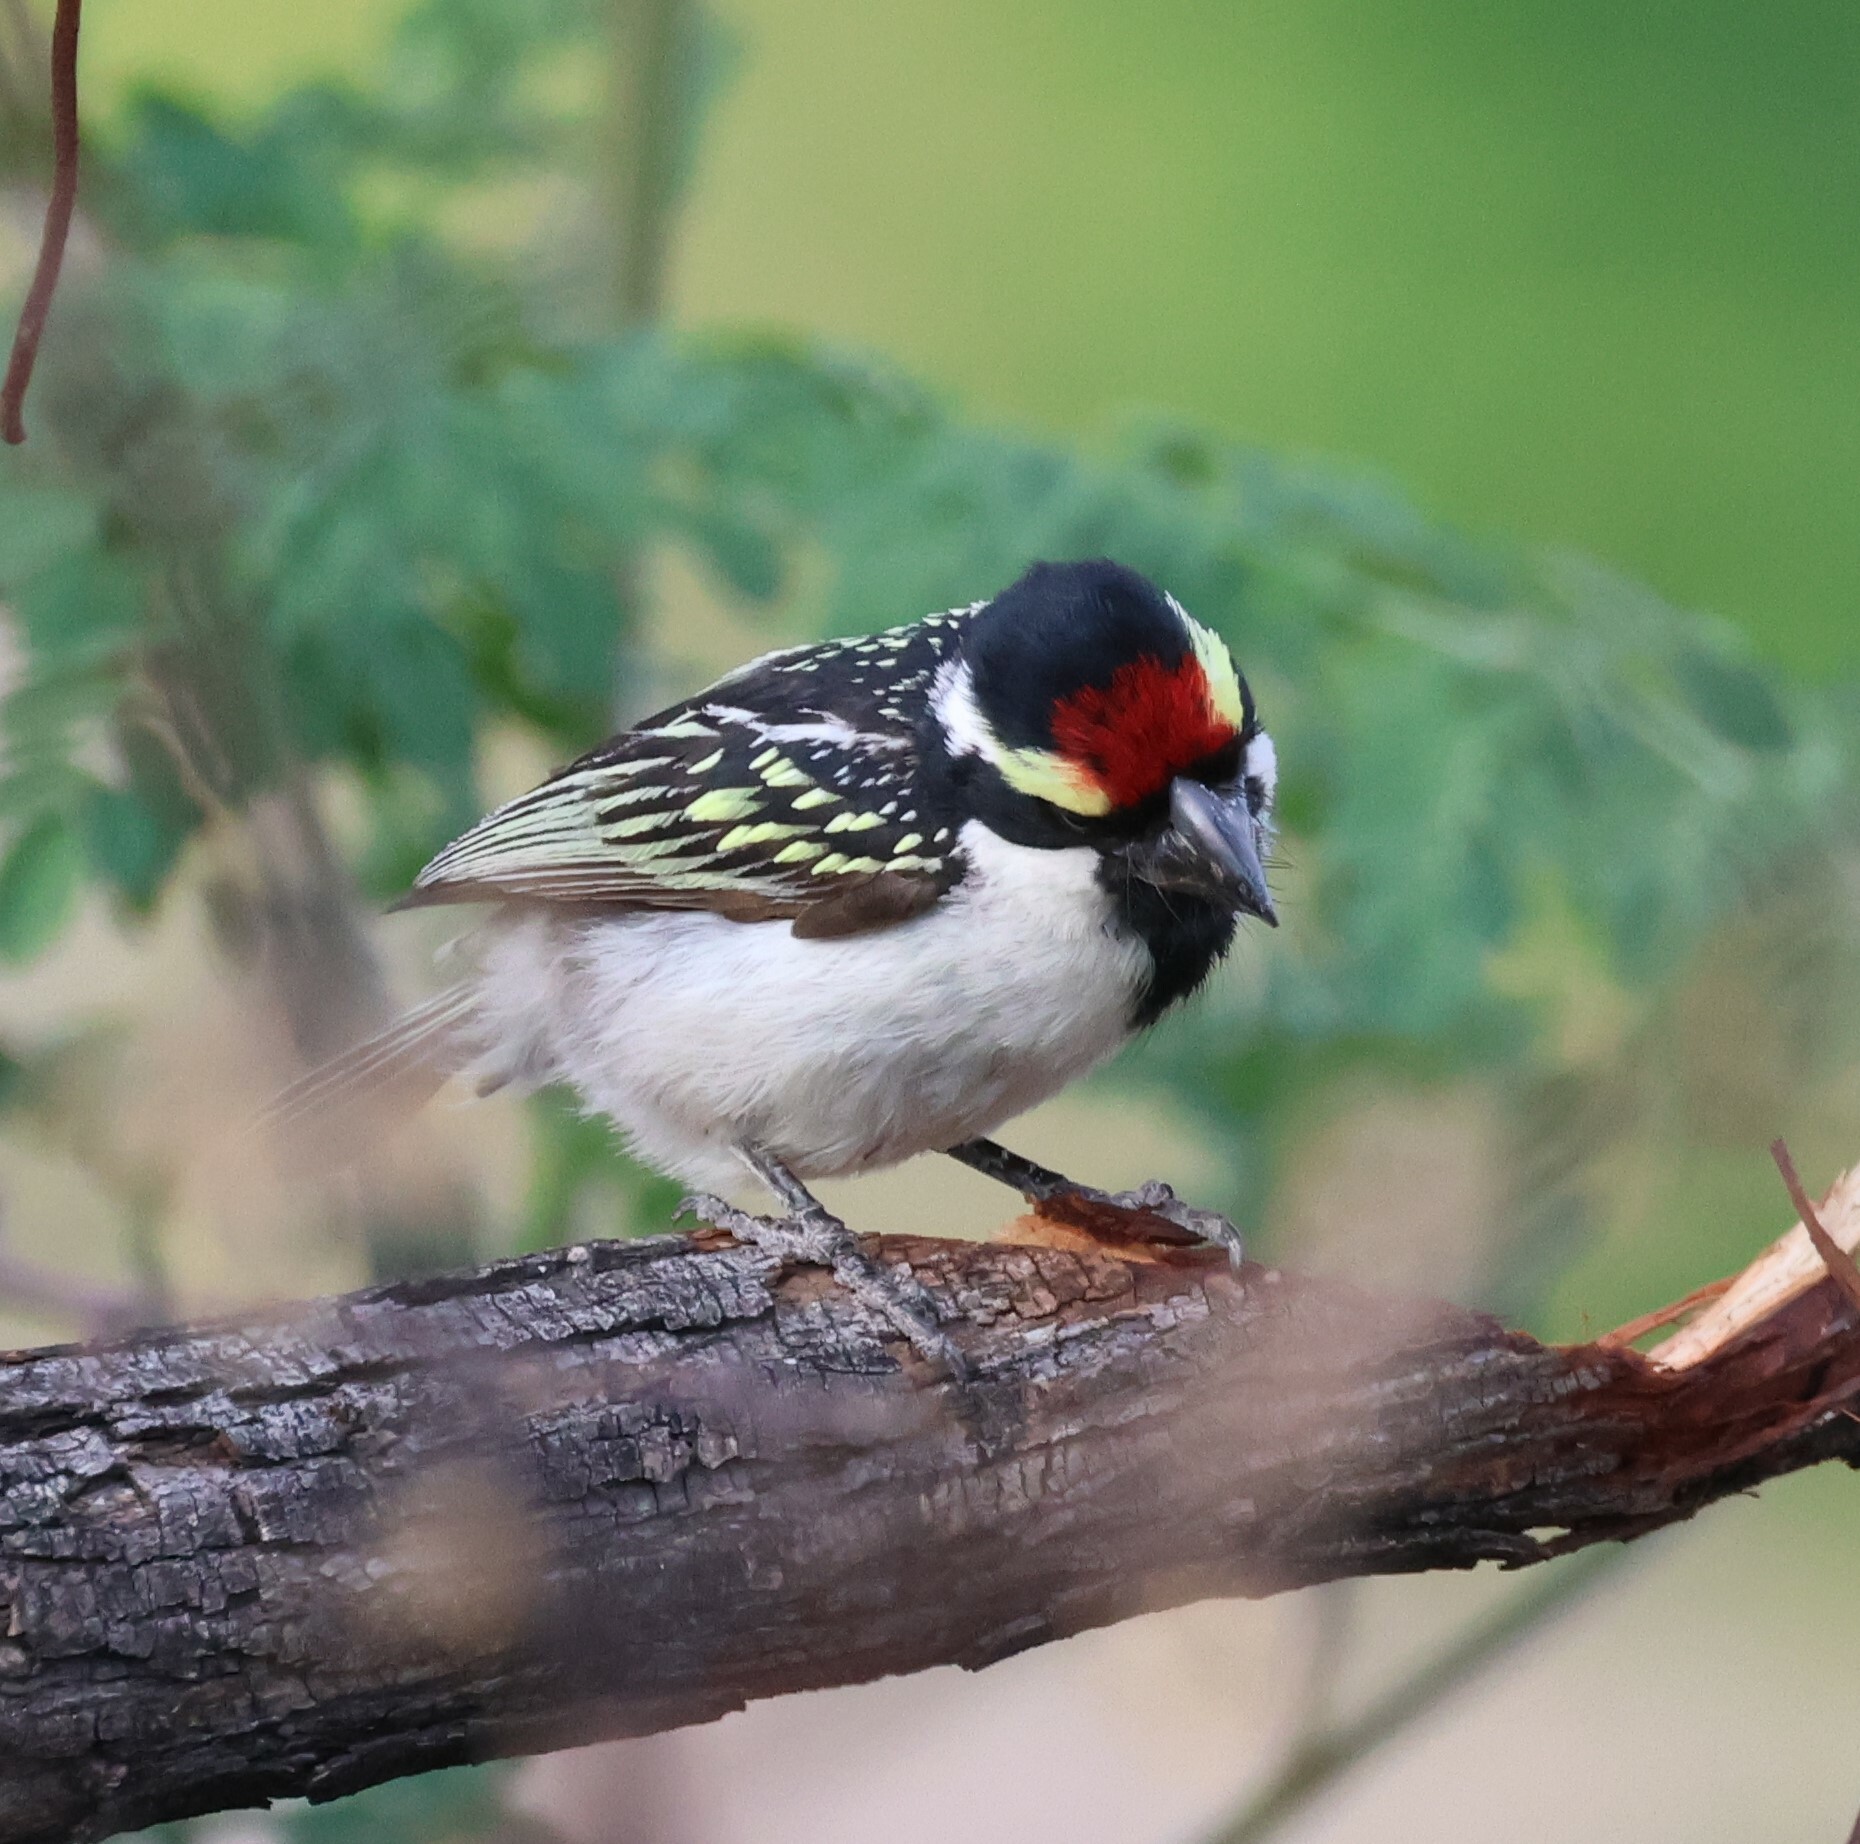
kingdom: Animalia
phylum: Chordata
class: Aves
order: Piciformes
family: Lybiidae
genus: Tricholaema
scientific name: Tricholaema leucomelas
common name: Acacia pied barbet
